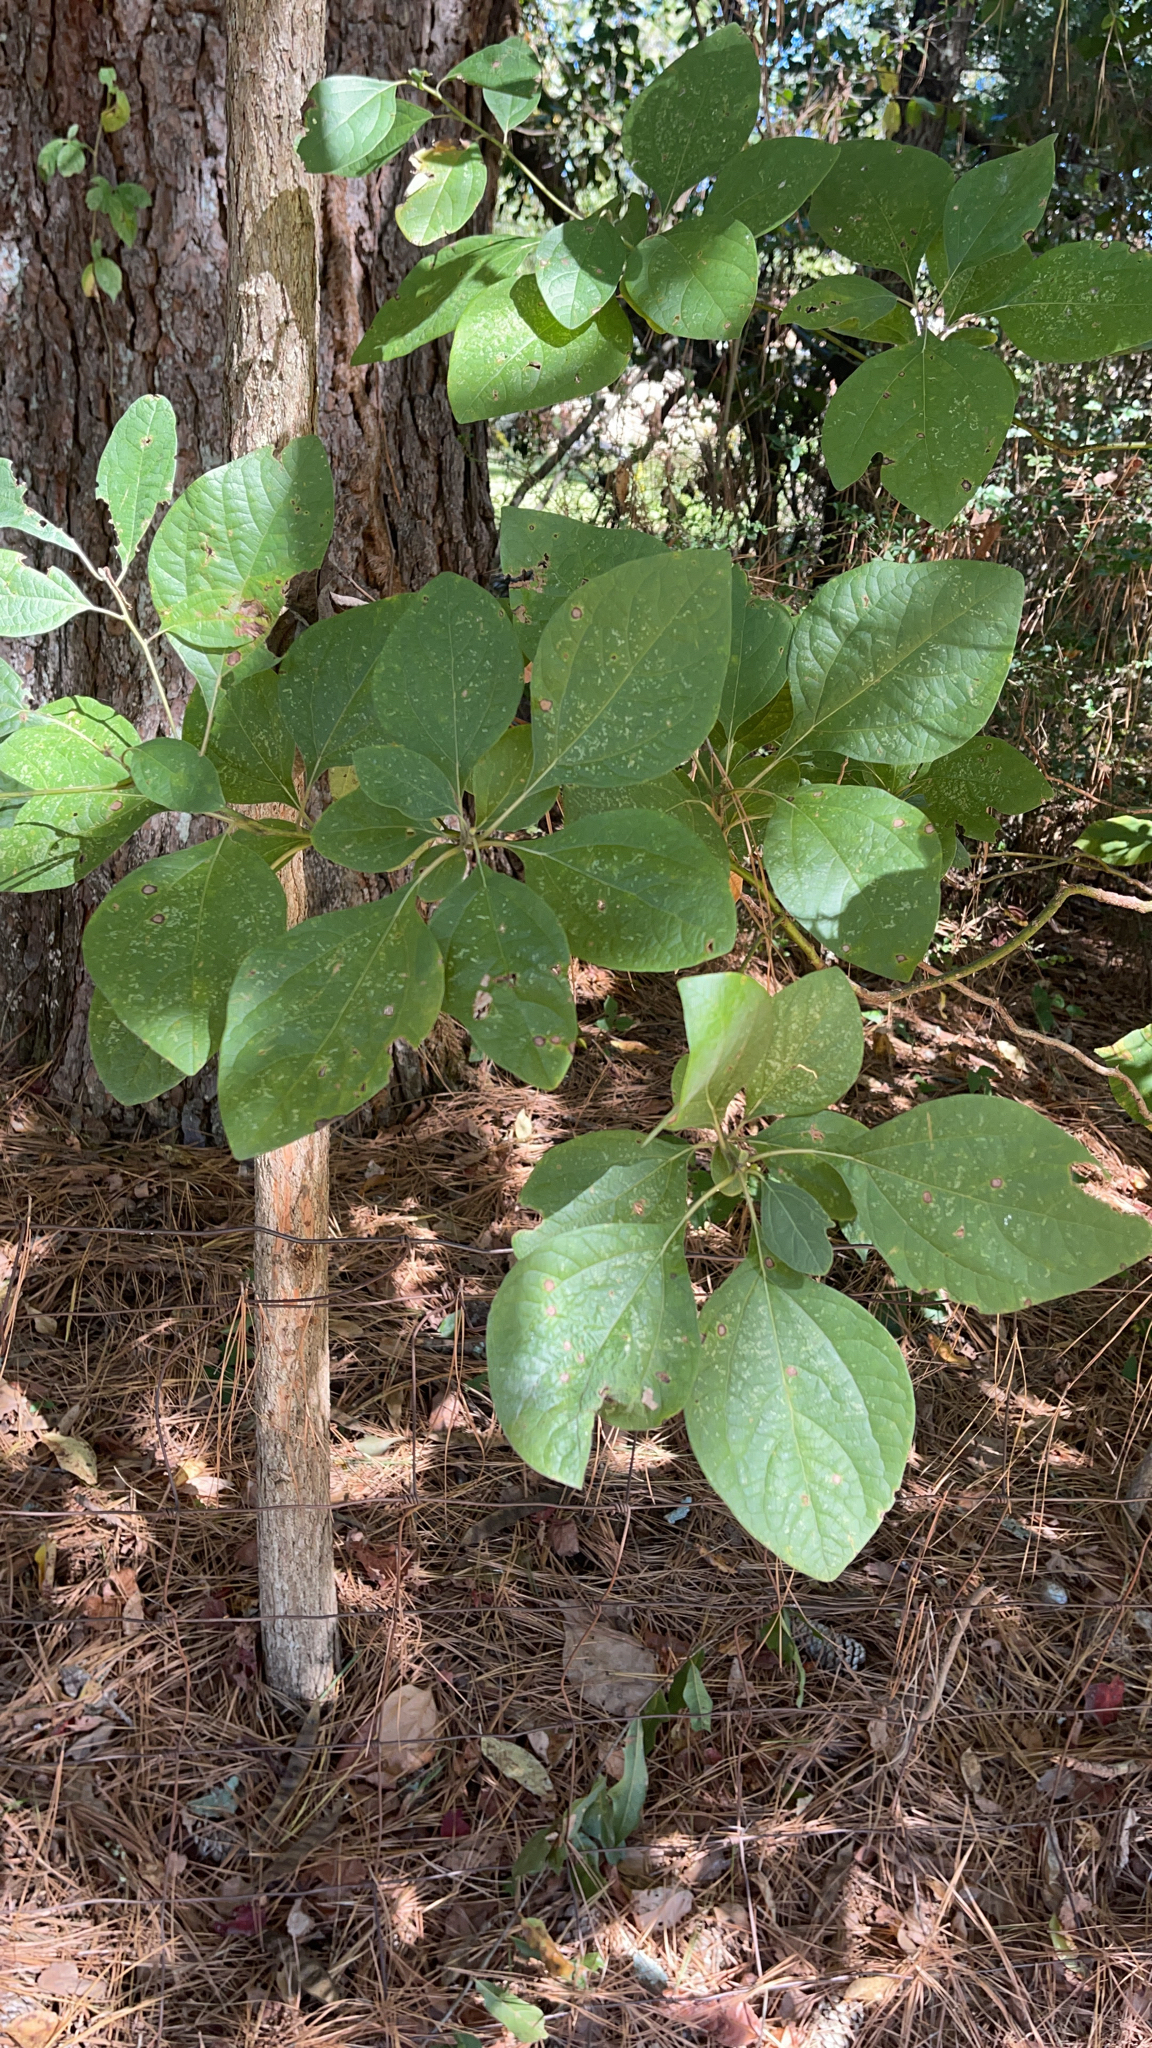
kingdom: Plantae
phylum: Tracheophyta
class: Magnoliopsida
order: Laurales
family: Lauraceae
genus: Sassafras
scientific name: Sassafras albidum
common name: Sassafras
